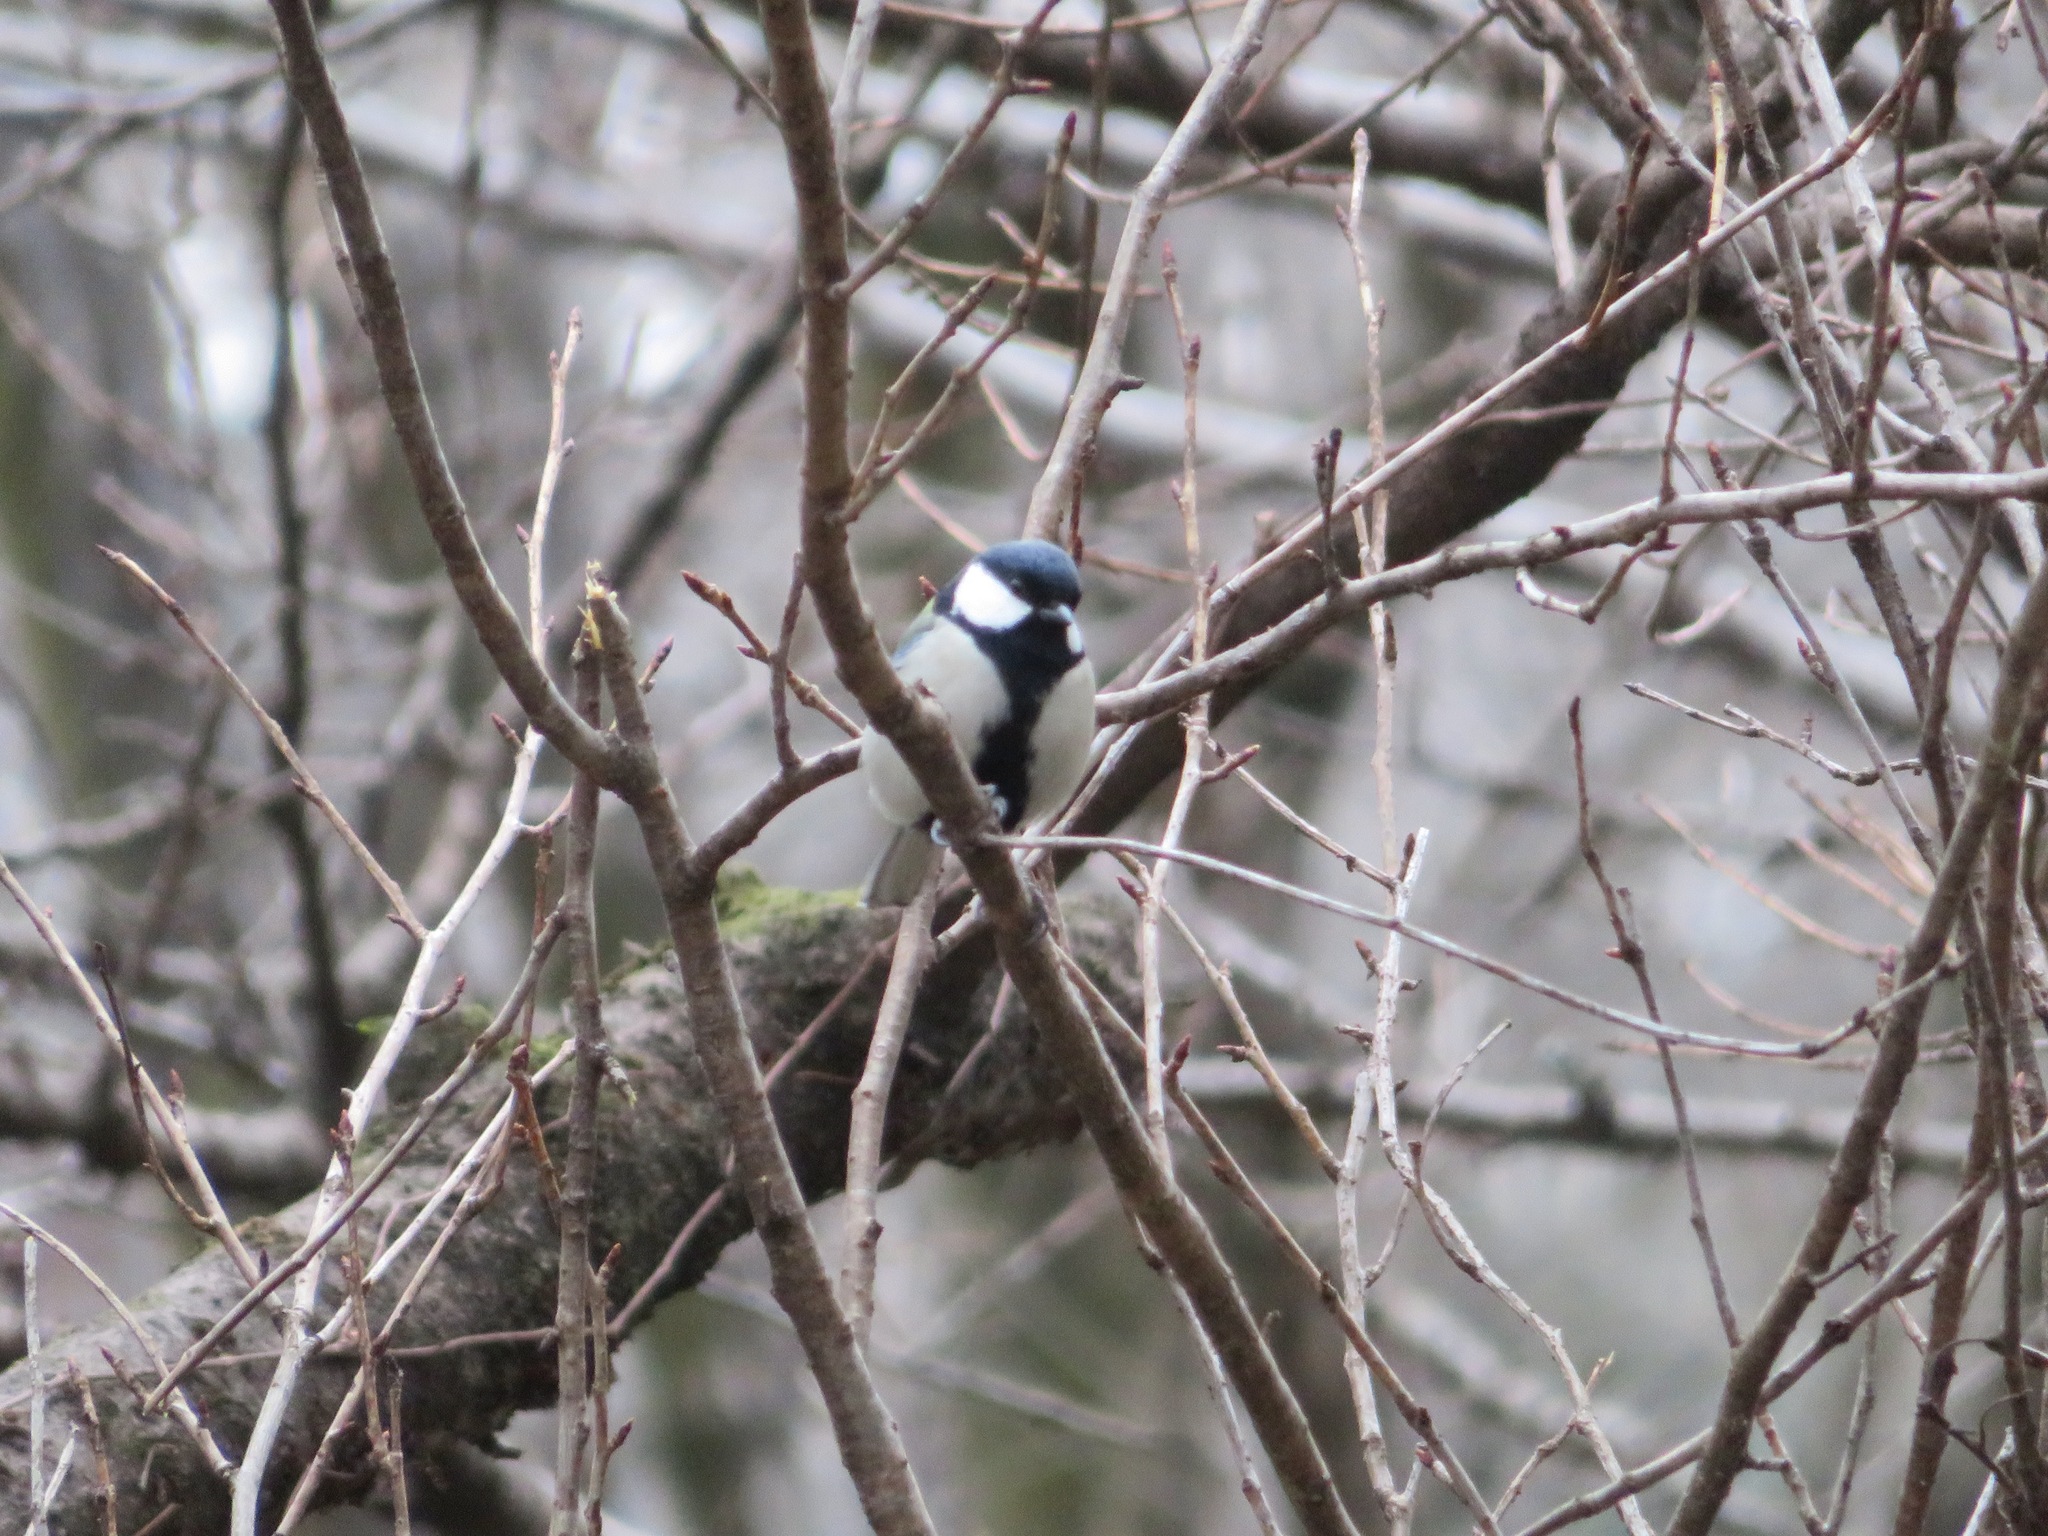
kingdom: Animalia
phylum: Chordata
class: Aves
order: Passeriformes
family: Paridae
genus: Parus
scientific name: Parus minor
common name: Japanese tit
